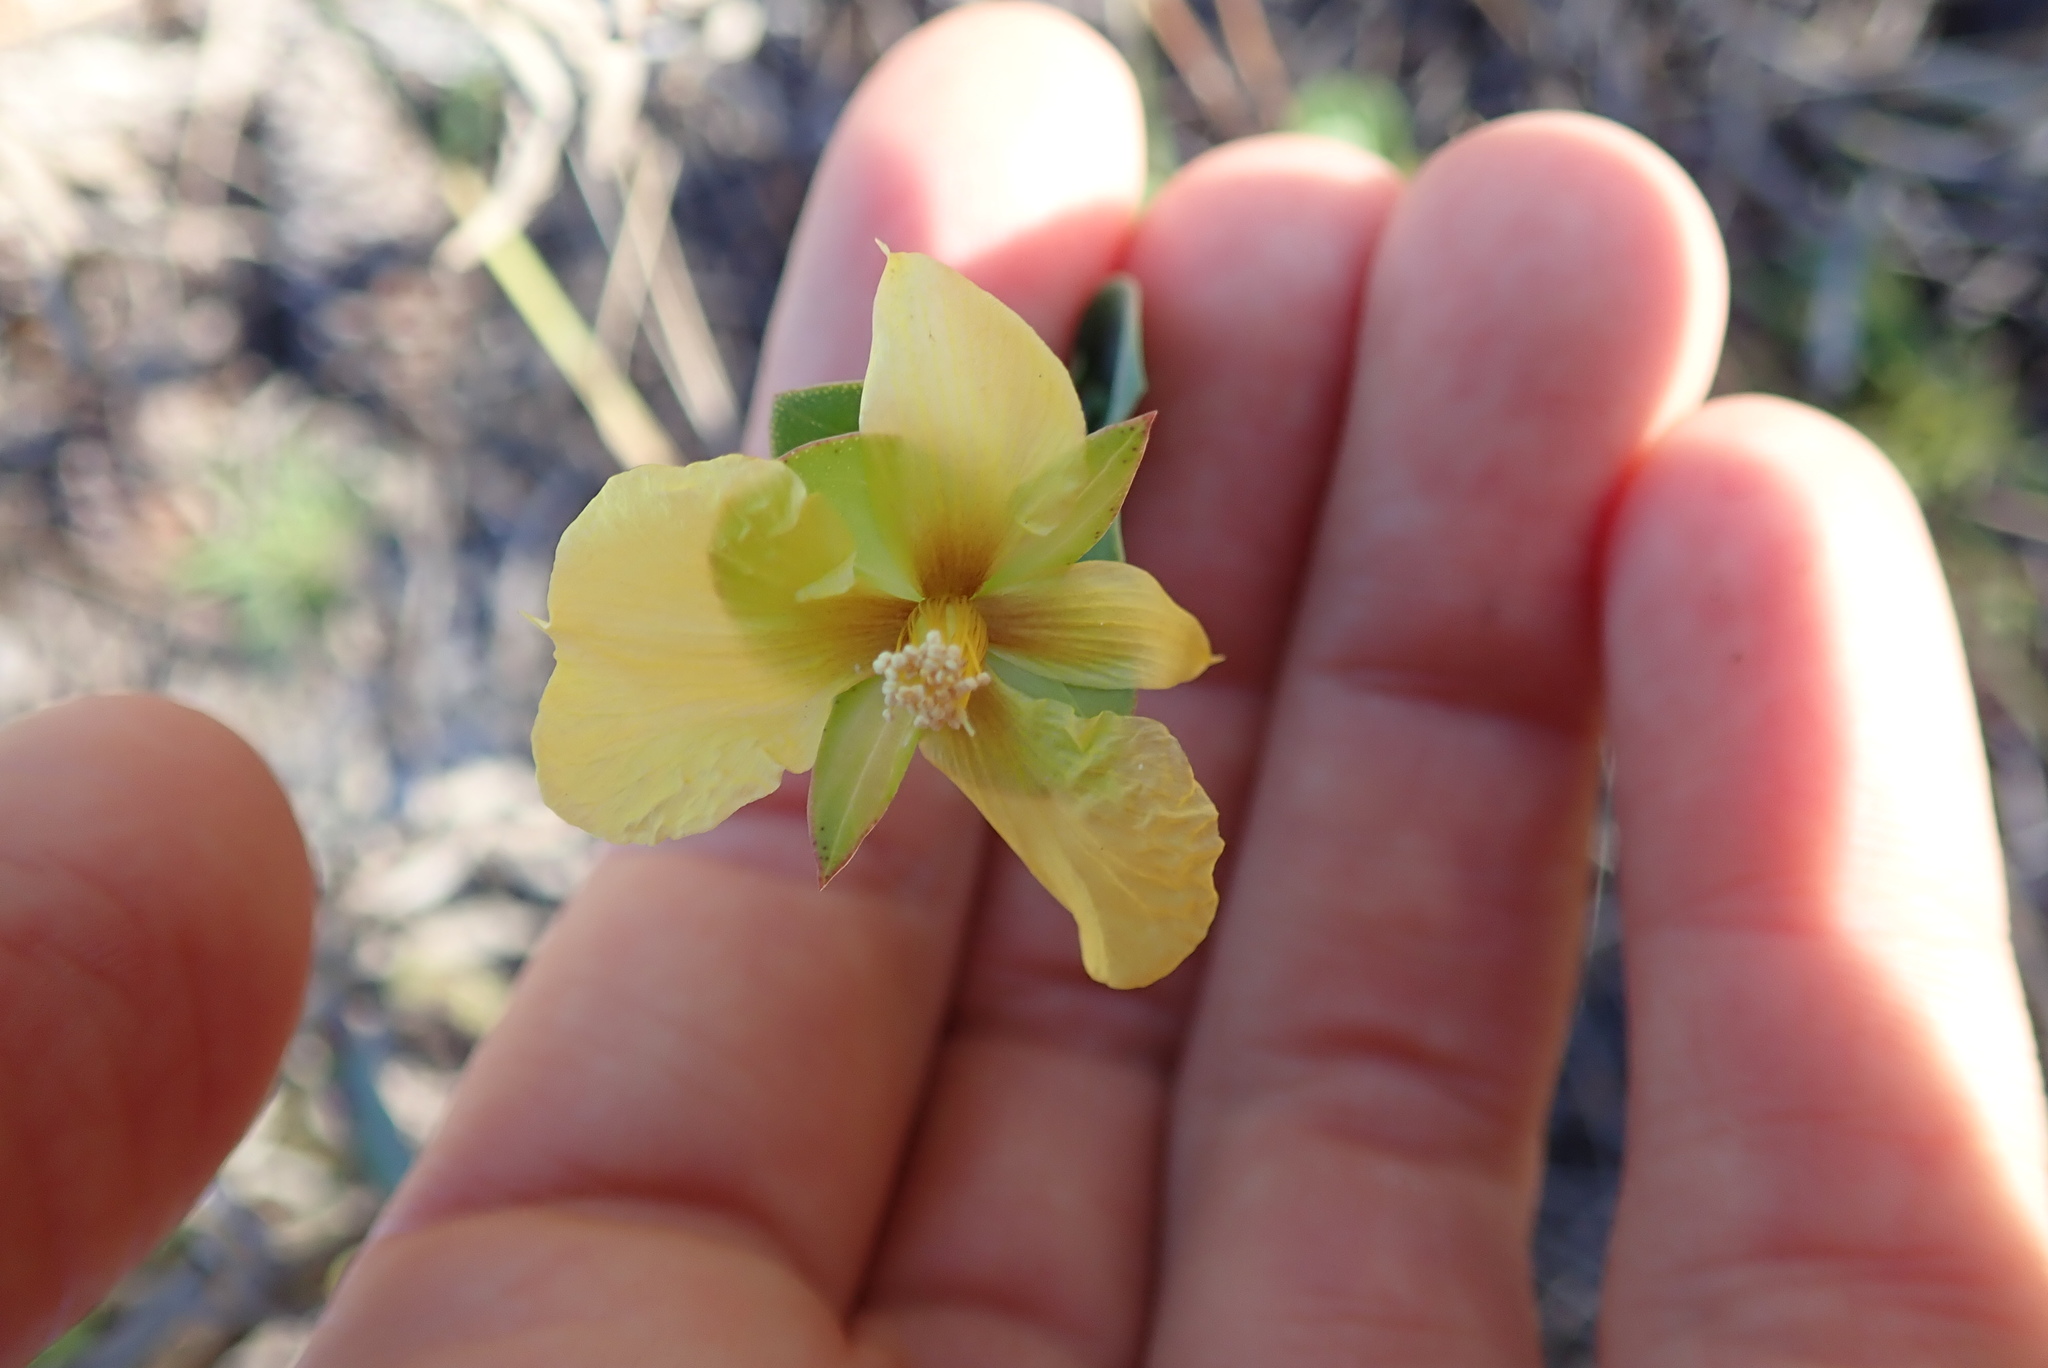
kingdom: Plantae
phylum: Tracheophyta
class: Magnoliopsida
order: Malpighiales
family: Hypericaceae
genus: Hypericum
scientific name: Hypericum tetrapetalum
